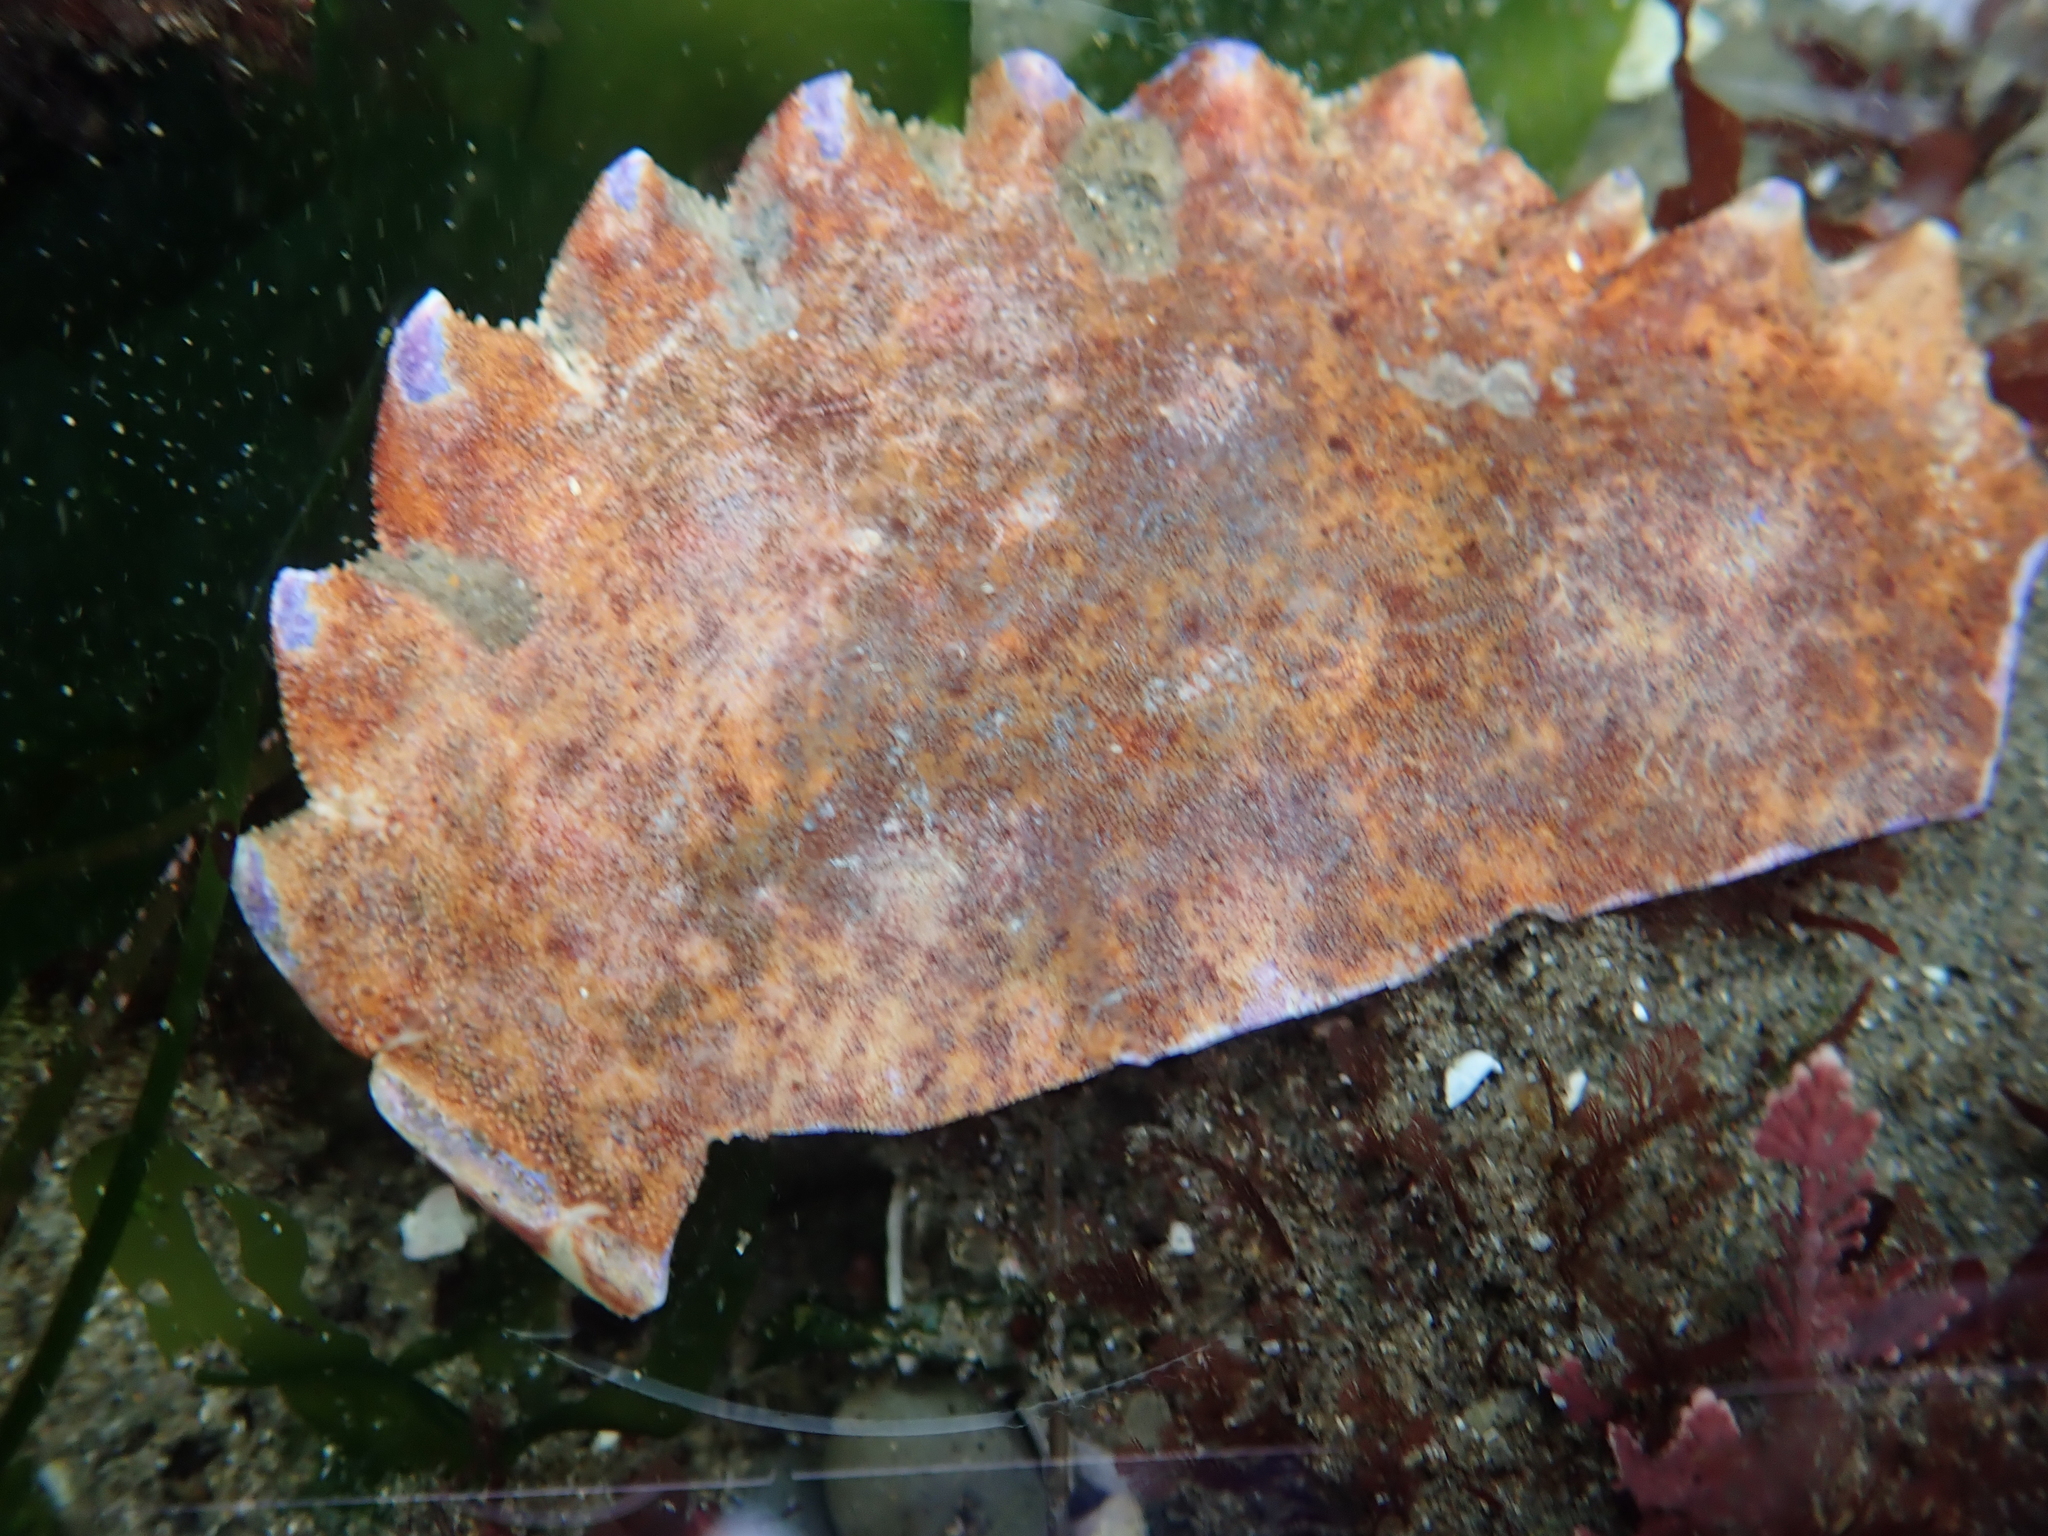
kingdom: Animalia
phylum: Arthropoda
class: Malacostraca
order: Decapoda
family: Cancridae
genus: Romaleon
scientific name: Romaleon antennarium
